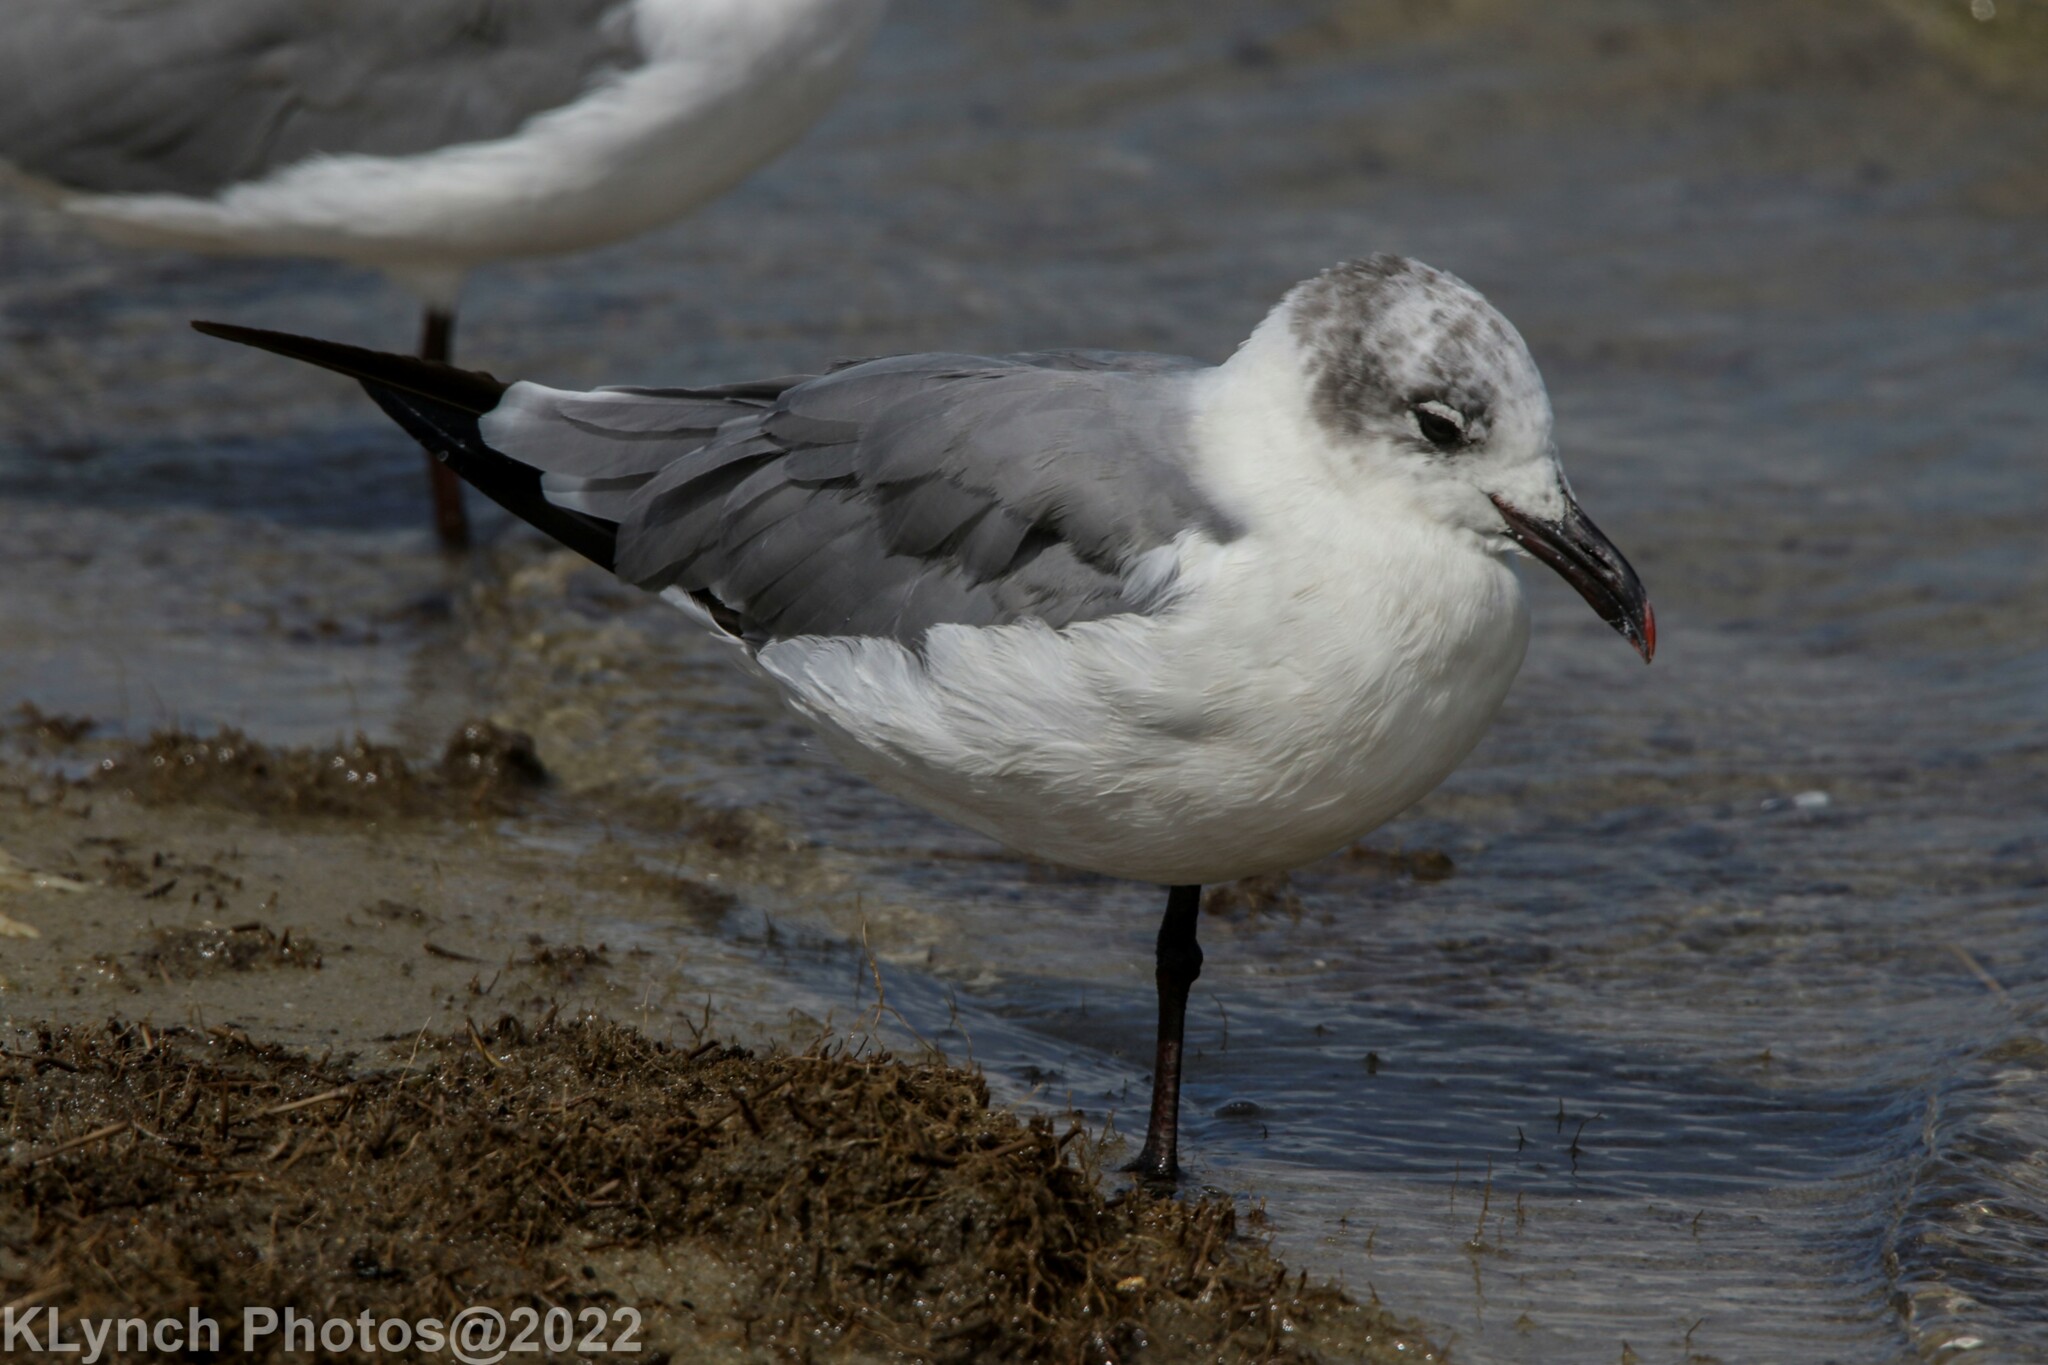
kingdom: Animalia
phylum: Chordata
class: Aves
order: Charadriiformes
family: Laridae
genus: Leucophaeus
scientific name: Leucophaeus atricilla
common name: Laughing gull
